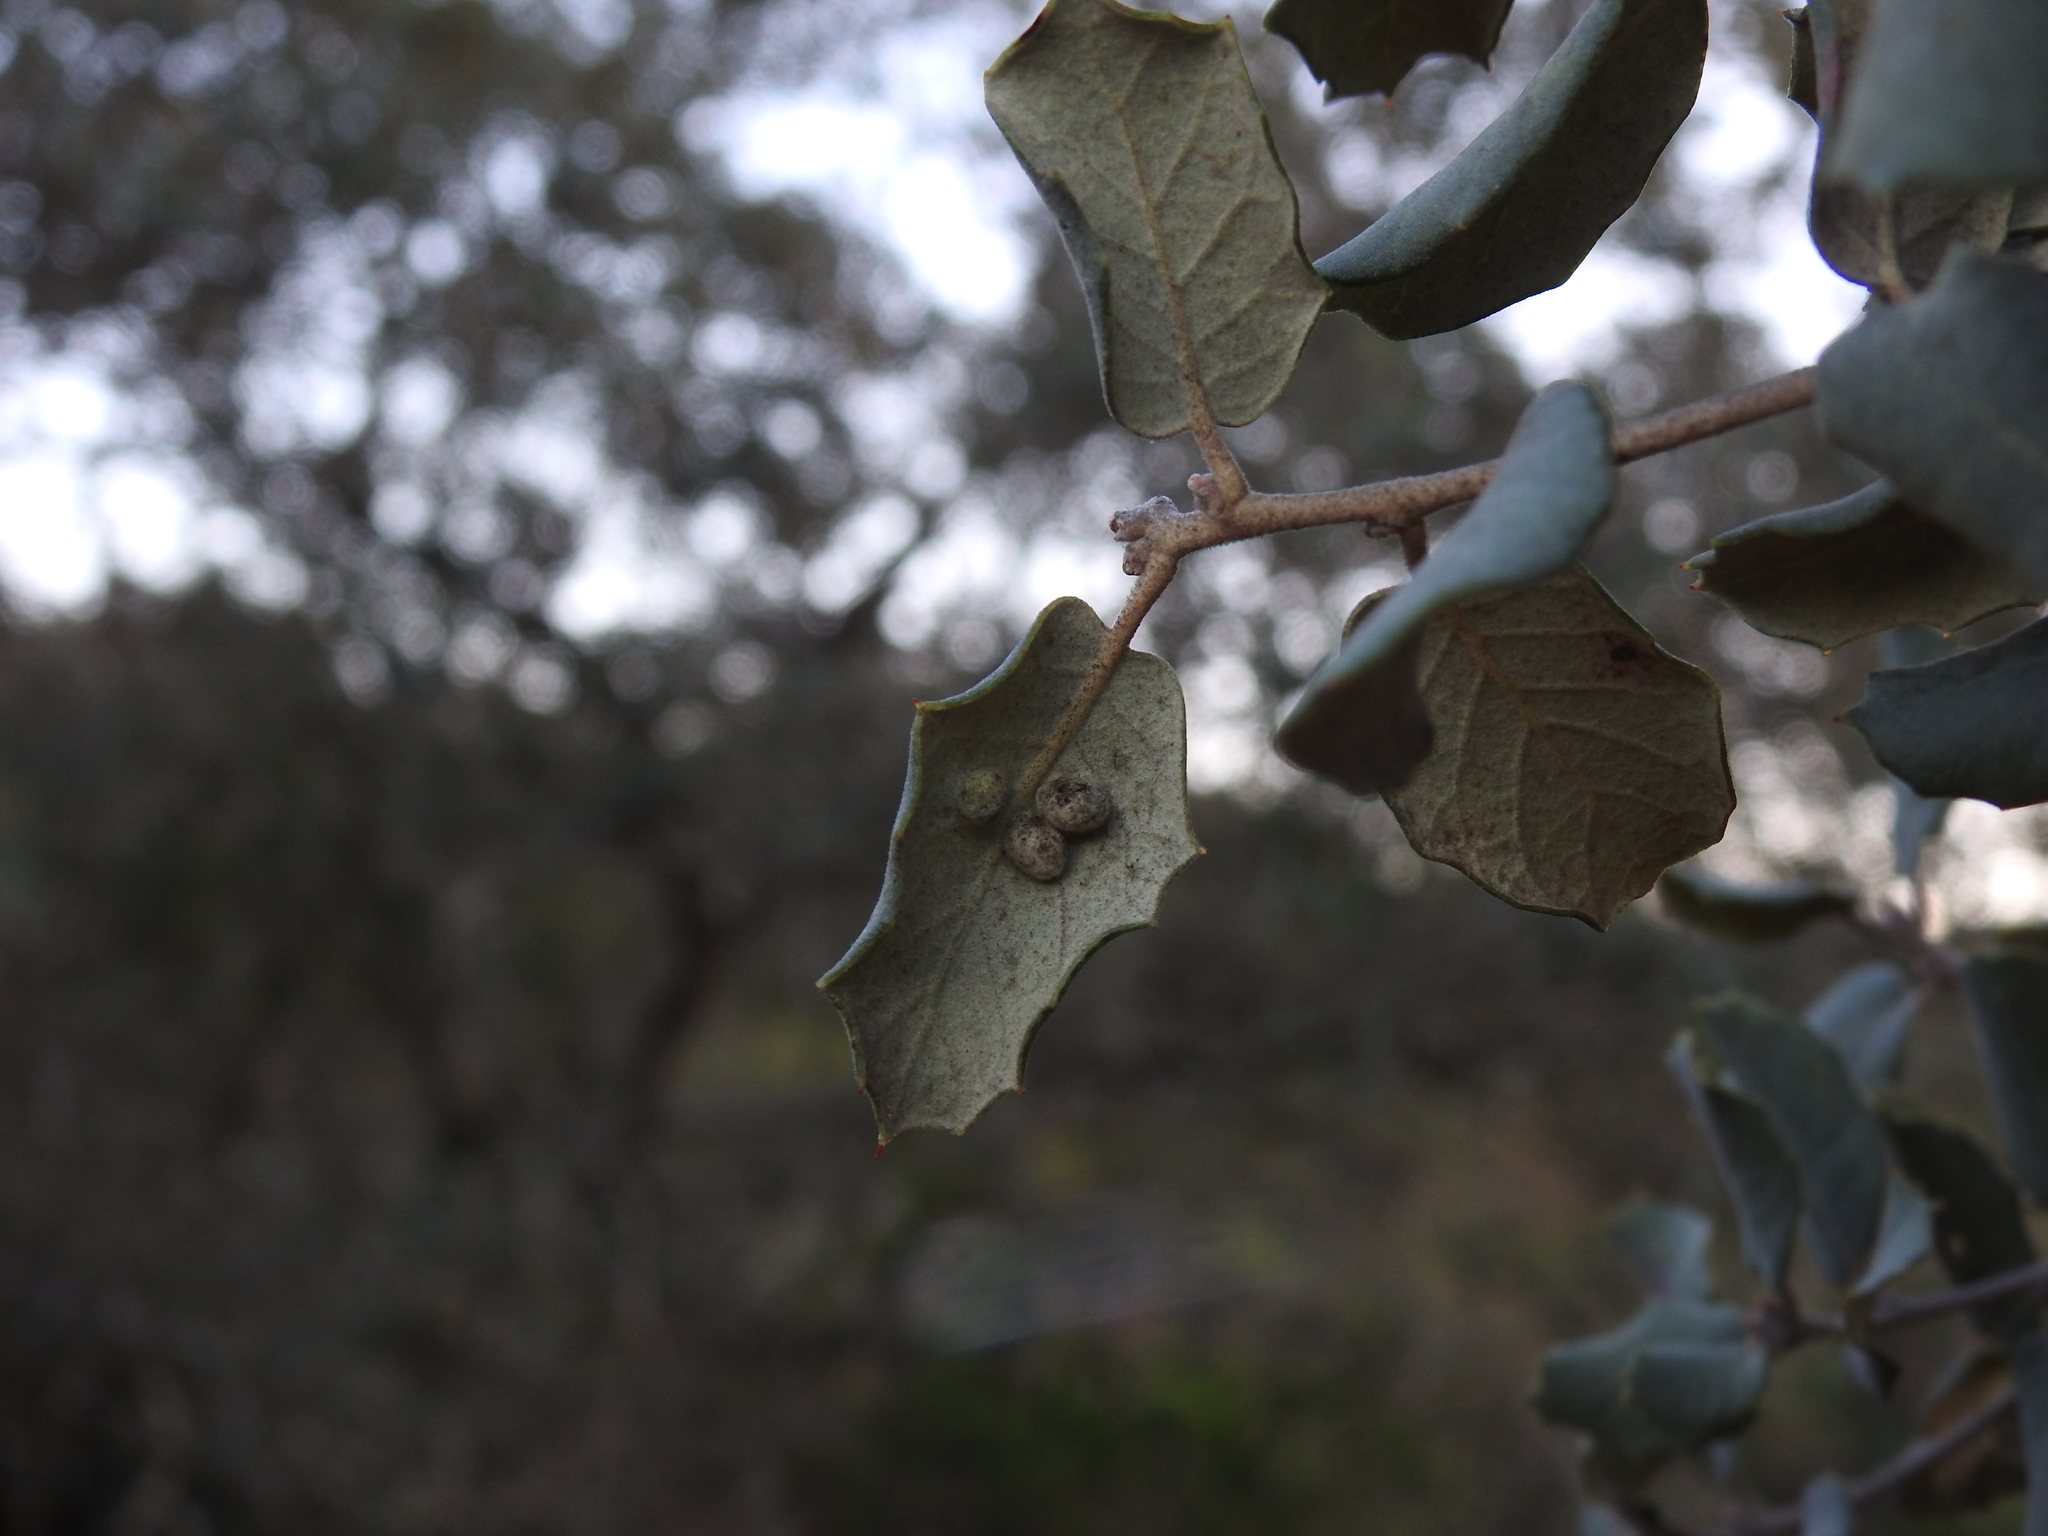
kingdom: Animalia
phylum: Arthropoda
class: Insecta
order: Diptera
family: Cecidomyiidae
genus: Dryomyia
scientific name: Dryomyia lichtensteinii
